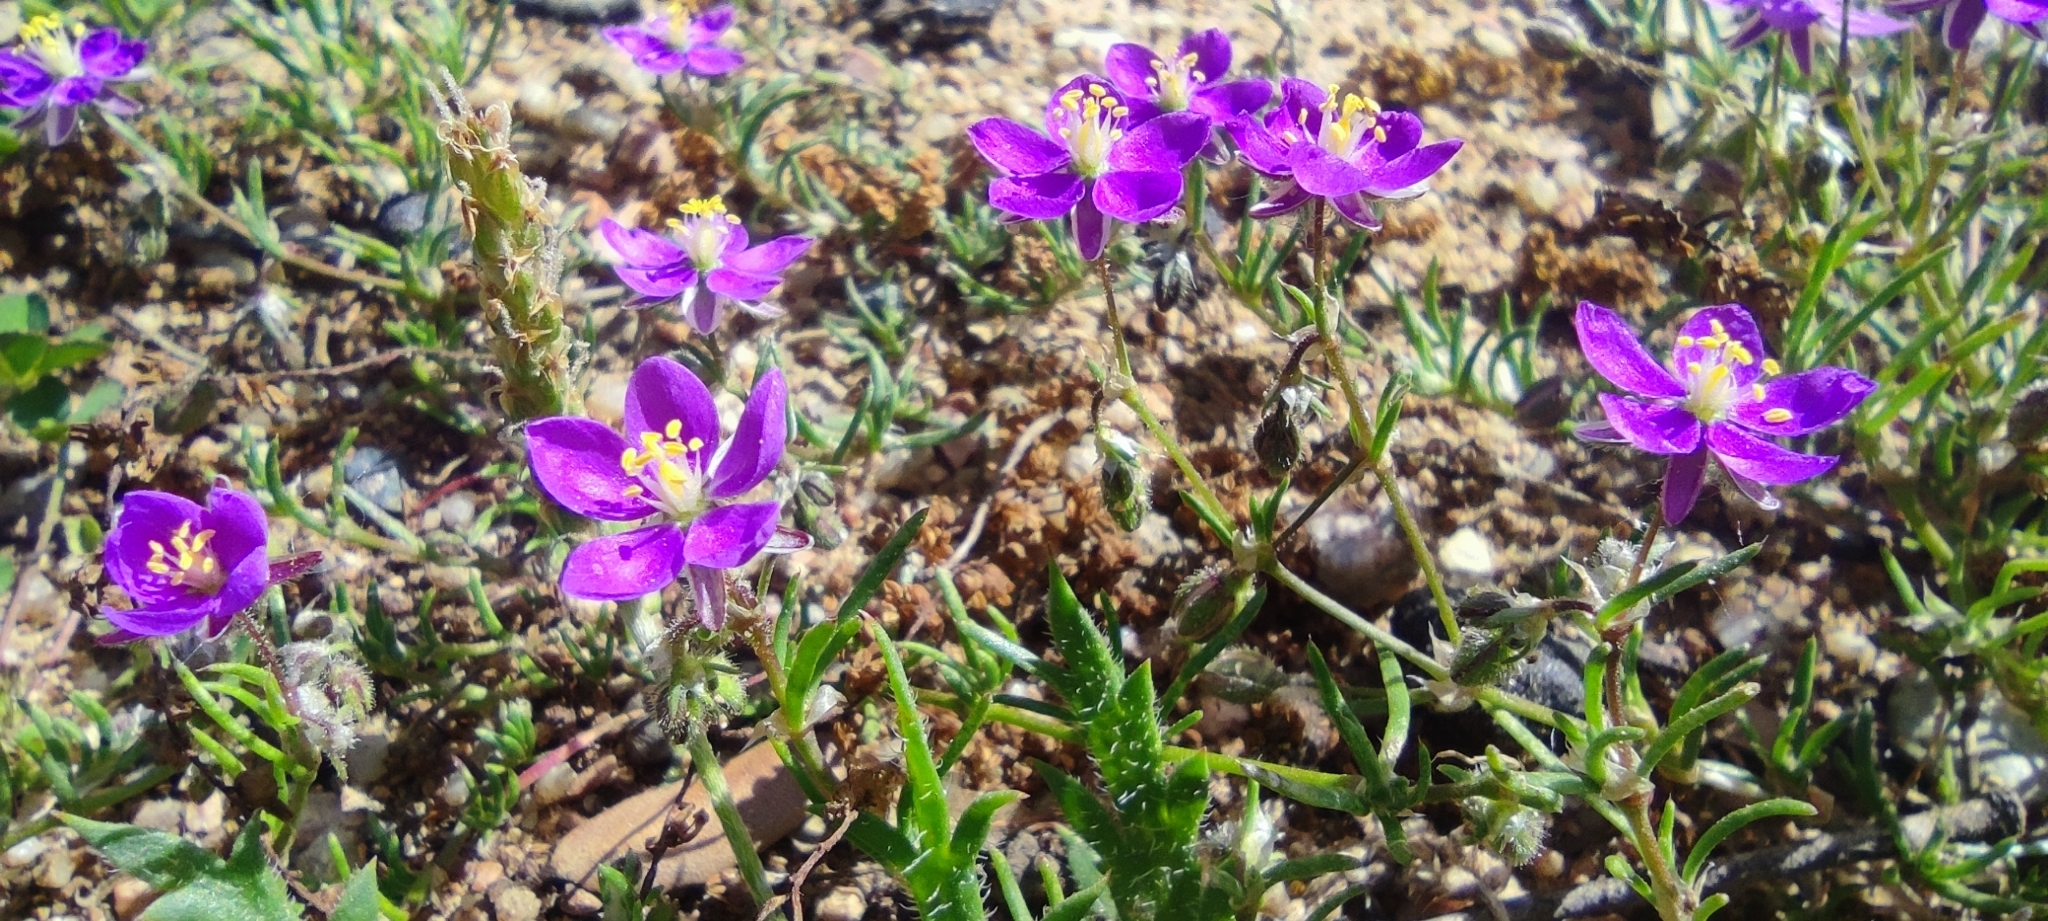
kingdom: Plantae
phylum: Tracheophyta
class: Magnoliopsida
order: Caryophyllales
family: Caryophyllaceae
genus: Spergularia
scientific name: Spergularia purpurea
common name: Purple sandspurry
